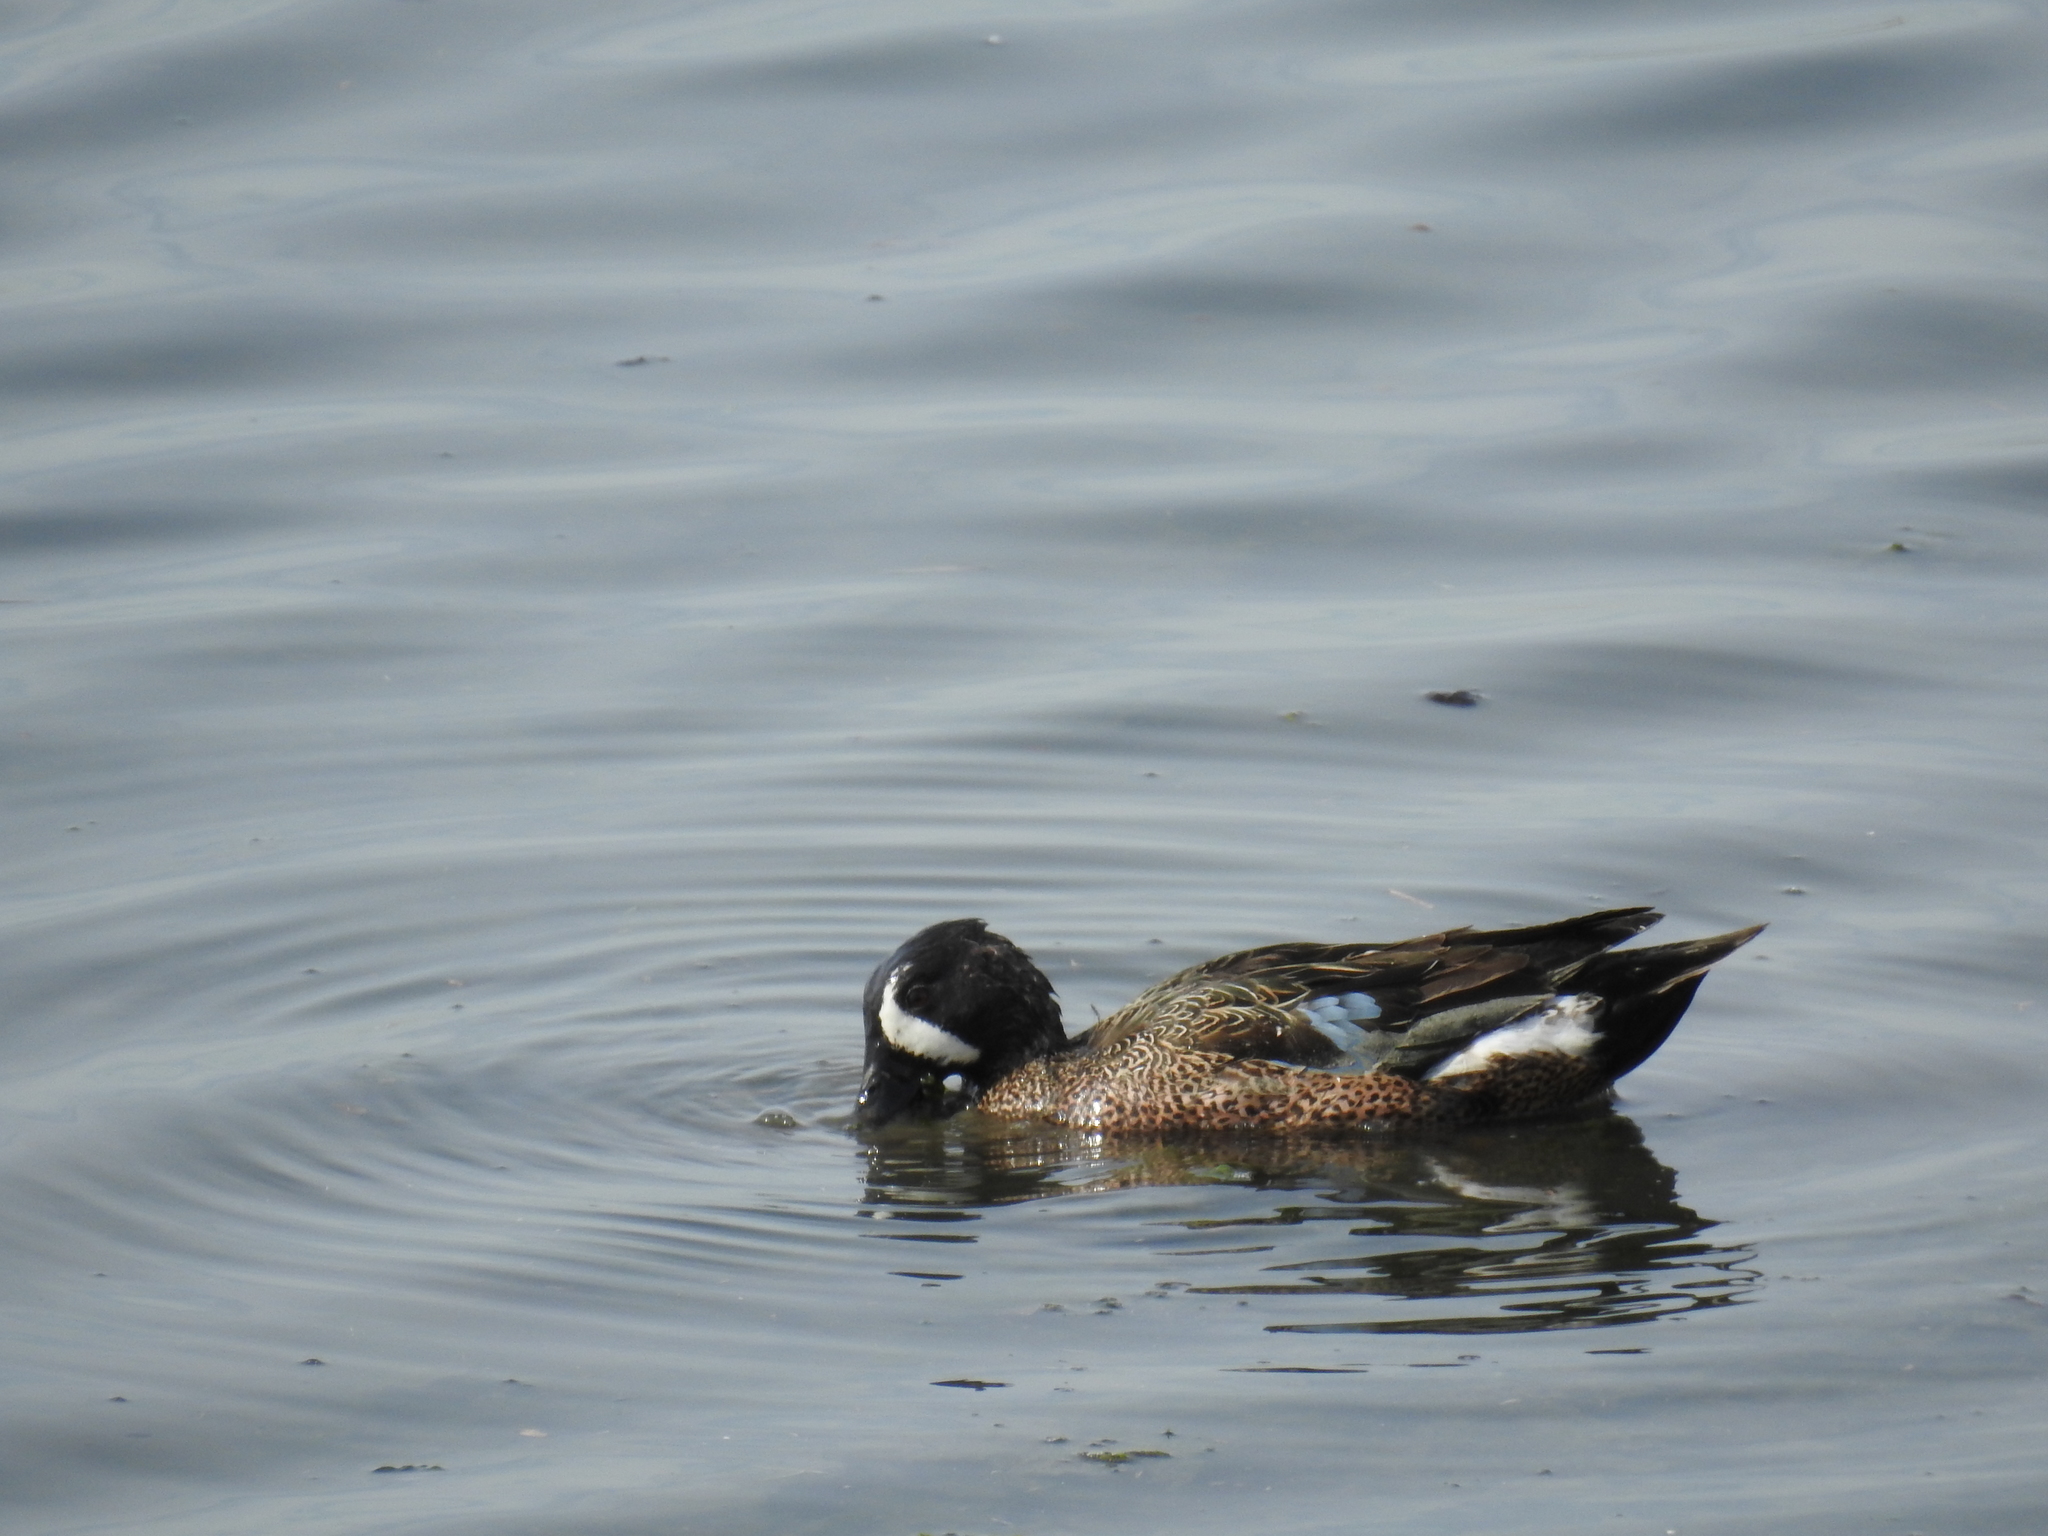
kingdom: Animalia
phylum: Chordata
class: Aves
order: Anseriformes
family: Anatidae
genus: Spatula
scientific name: Spatula discors
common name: Blue-winged teal
